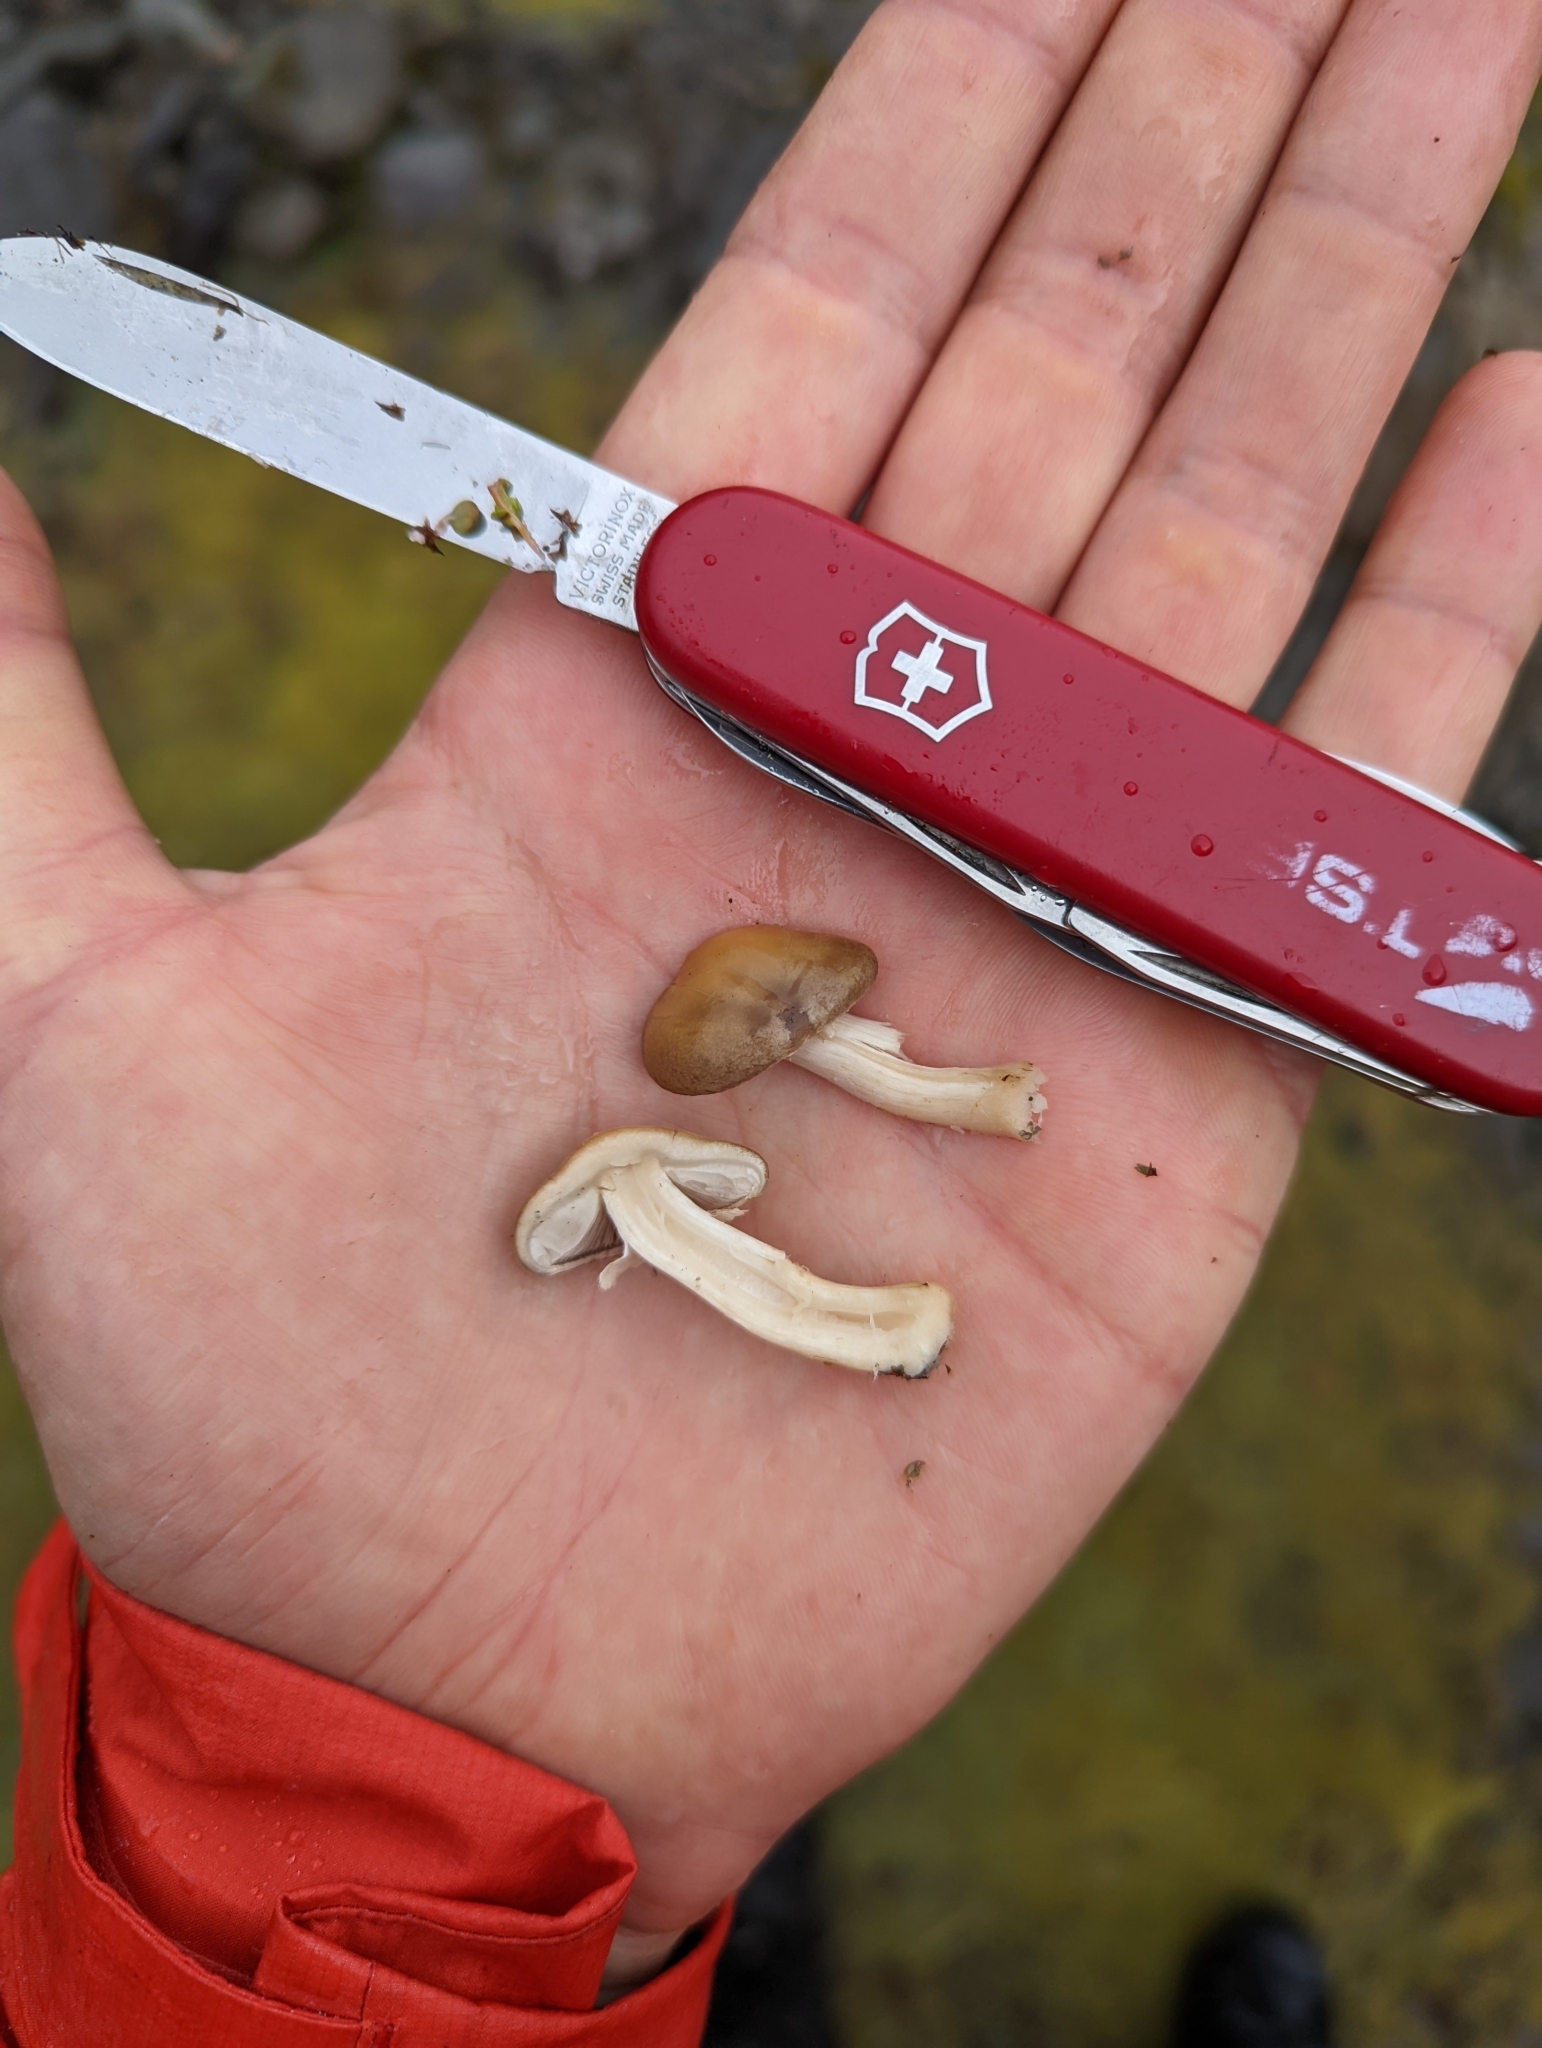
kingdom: Fungi
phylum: Basidiomycota
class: Agaricomycetes
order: Agaricales
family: Strophariaceae
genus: Agrocybe
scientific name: Agrocybe praecox
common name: Spring fieldcap
